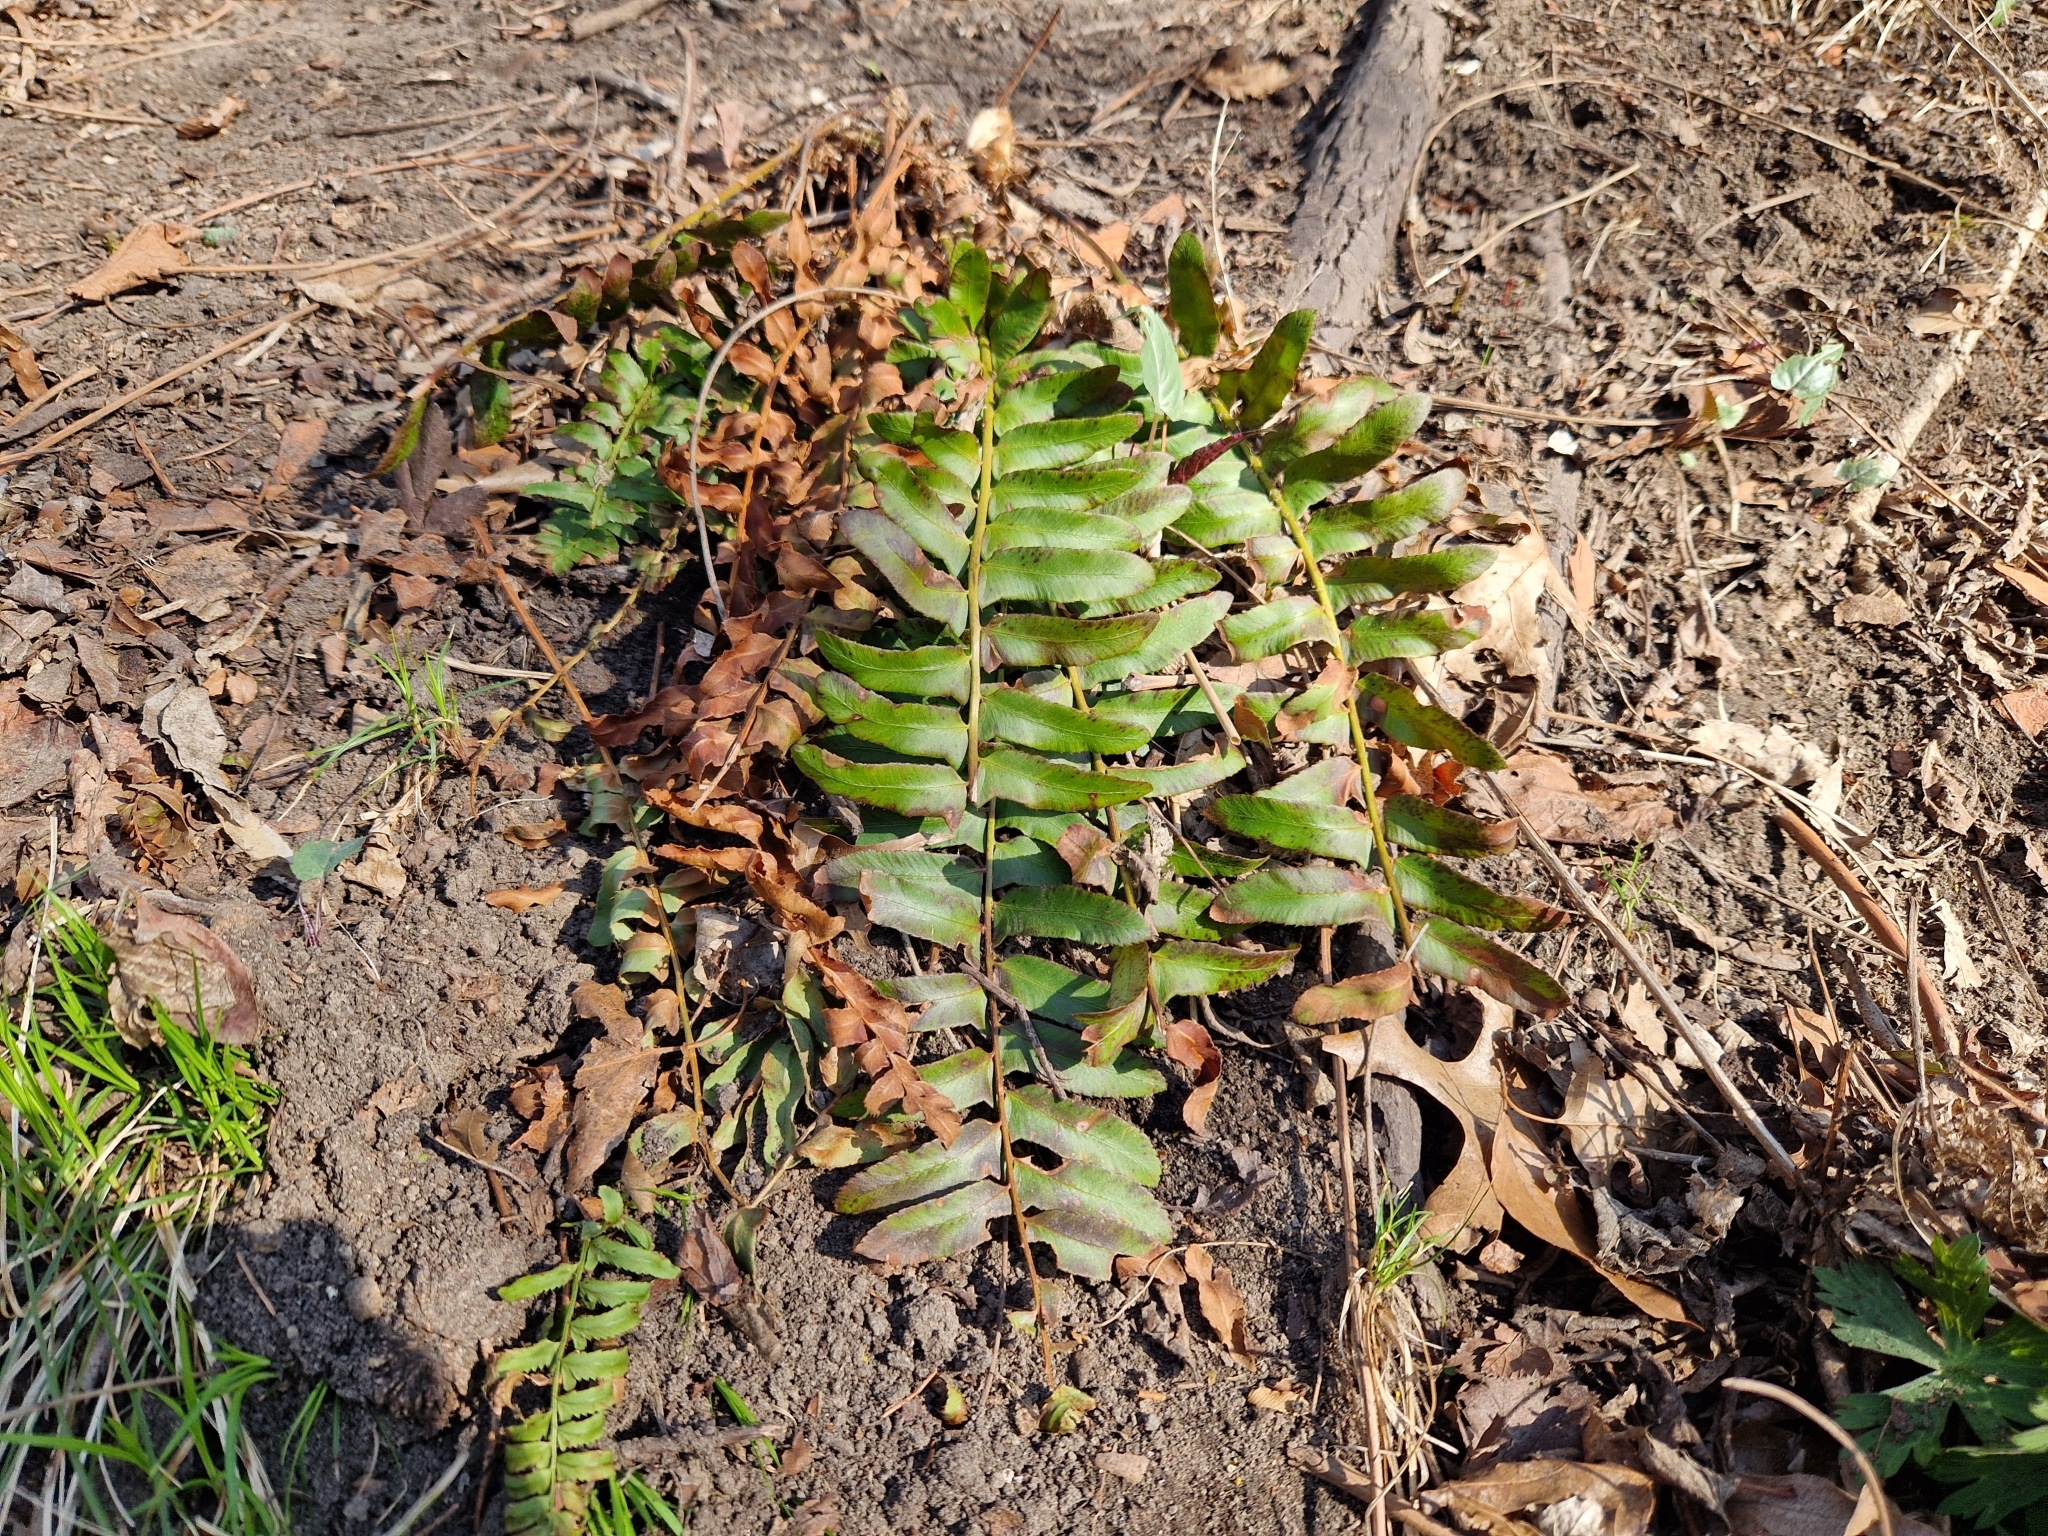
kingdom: Plantae
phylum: Tracheophyta
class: Polypodiopsida
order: Polypodiales
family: Dryopteridaceae
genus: Polystichum
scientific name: Polystichum acrostichoides
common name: Christmas fern
